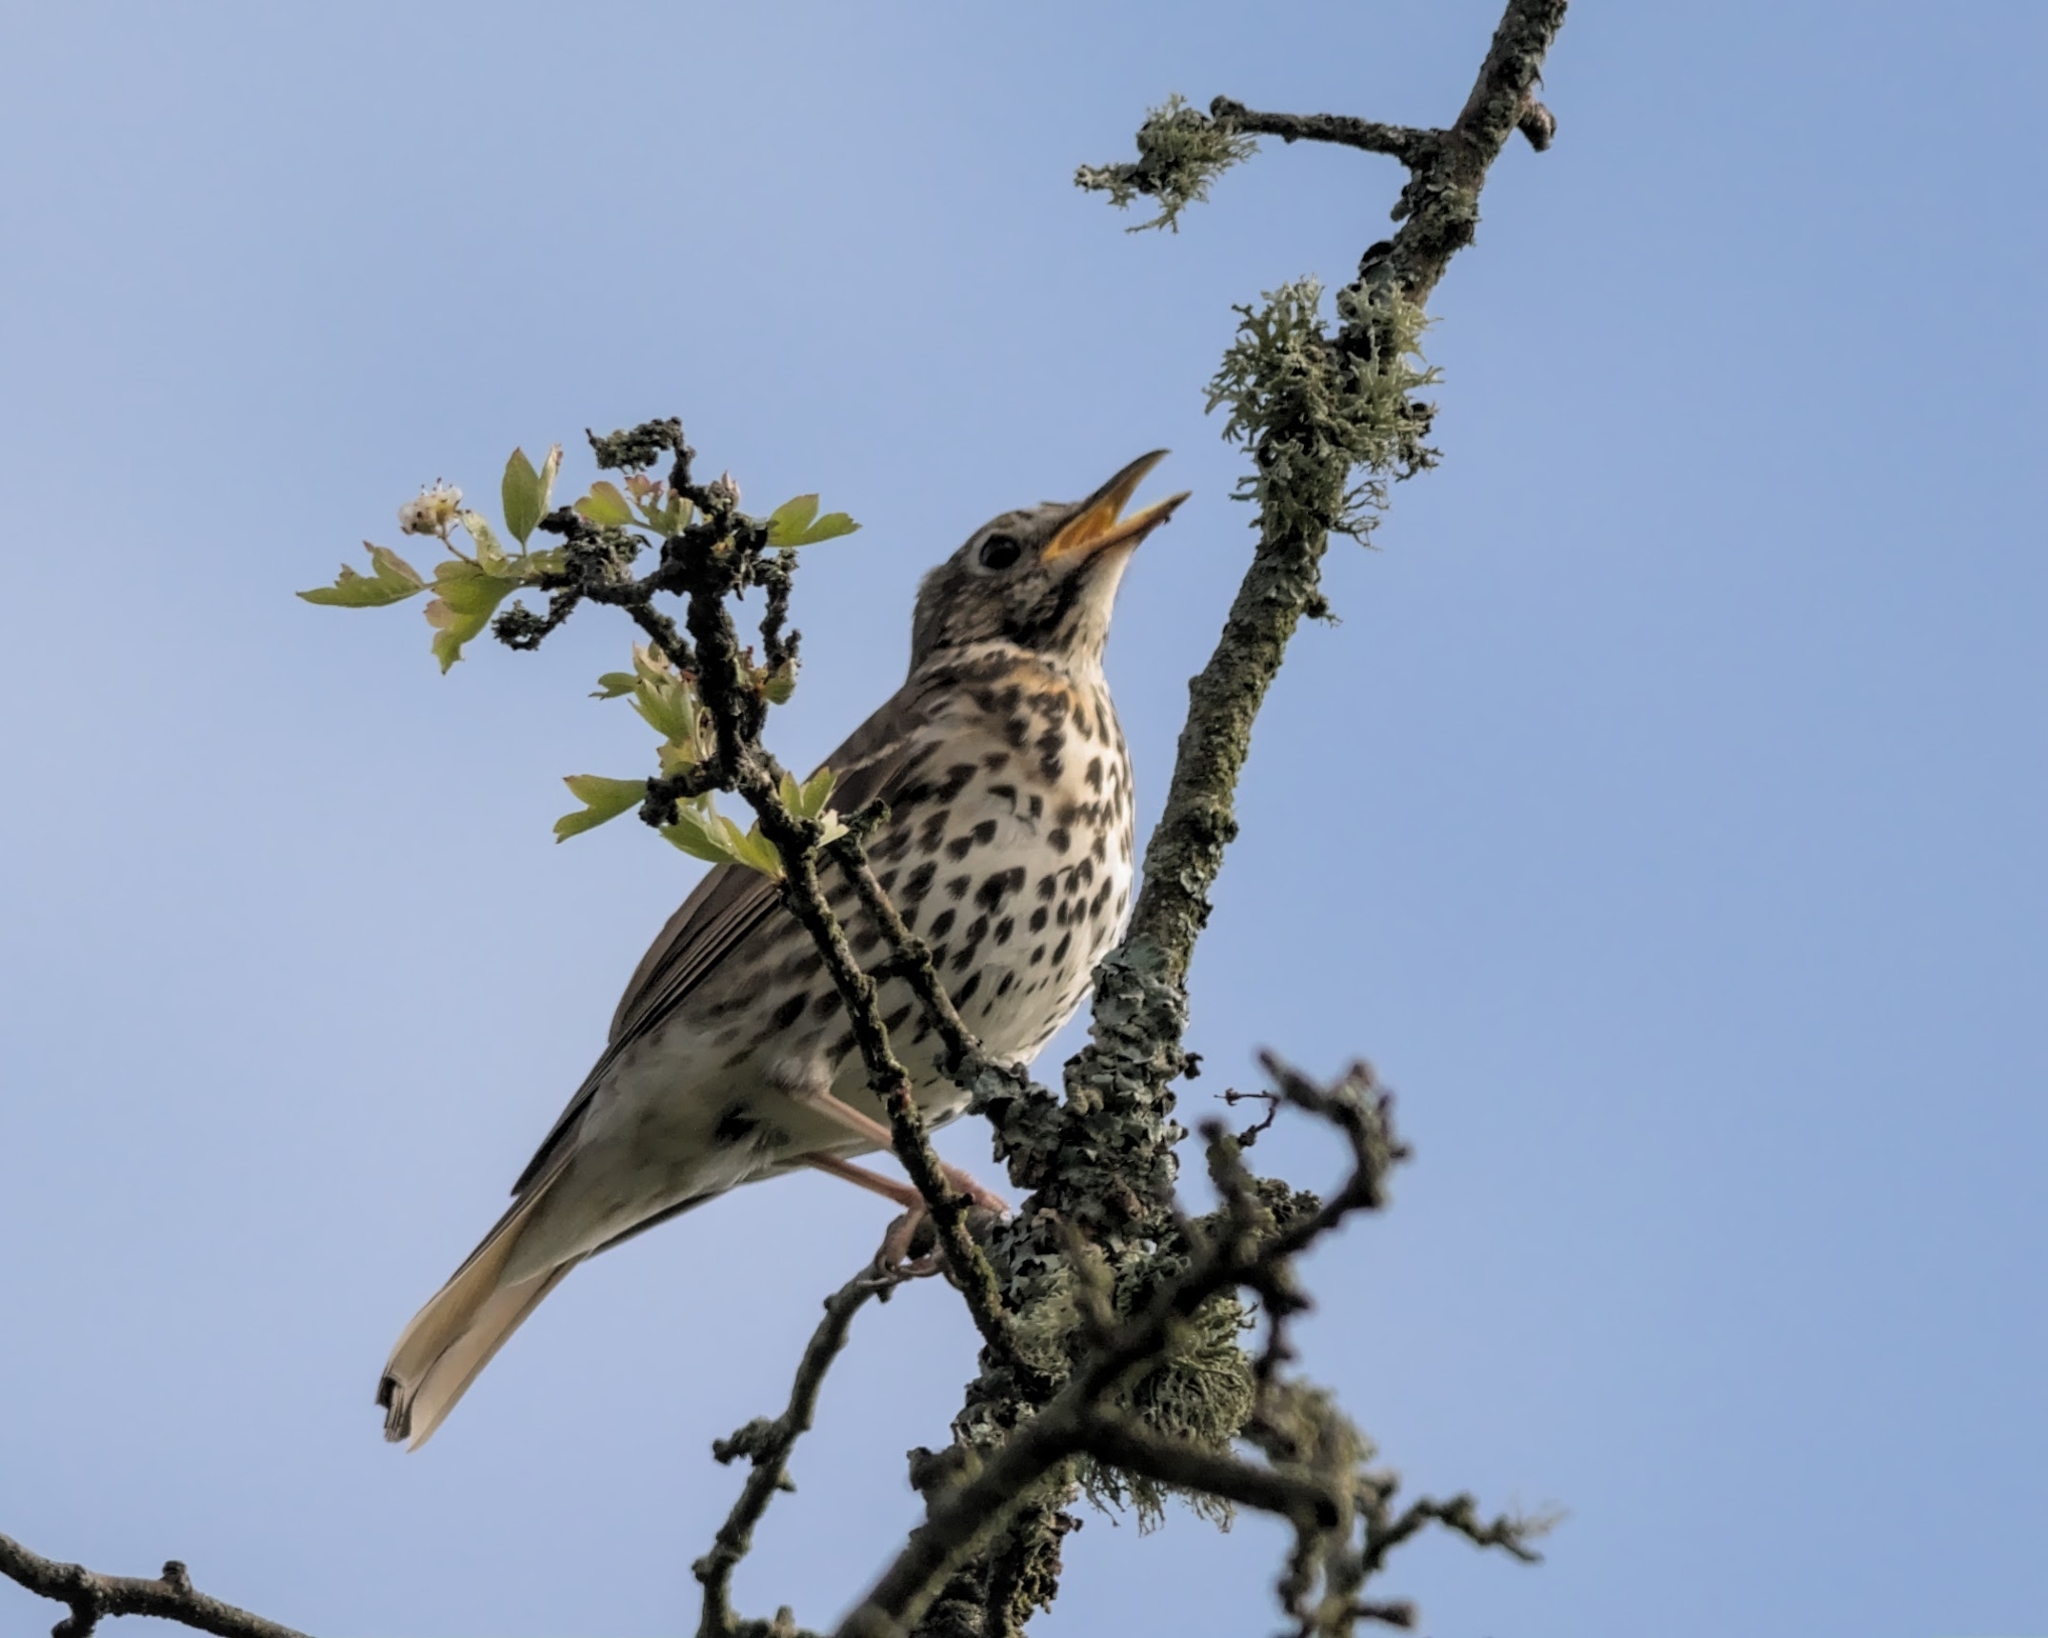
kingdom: Animalia
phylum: Chordata
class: Aves
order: Passeriformes
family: Turdidae
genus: Turdus
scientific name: Turdus philomelos
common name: Song thrush
